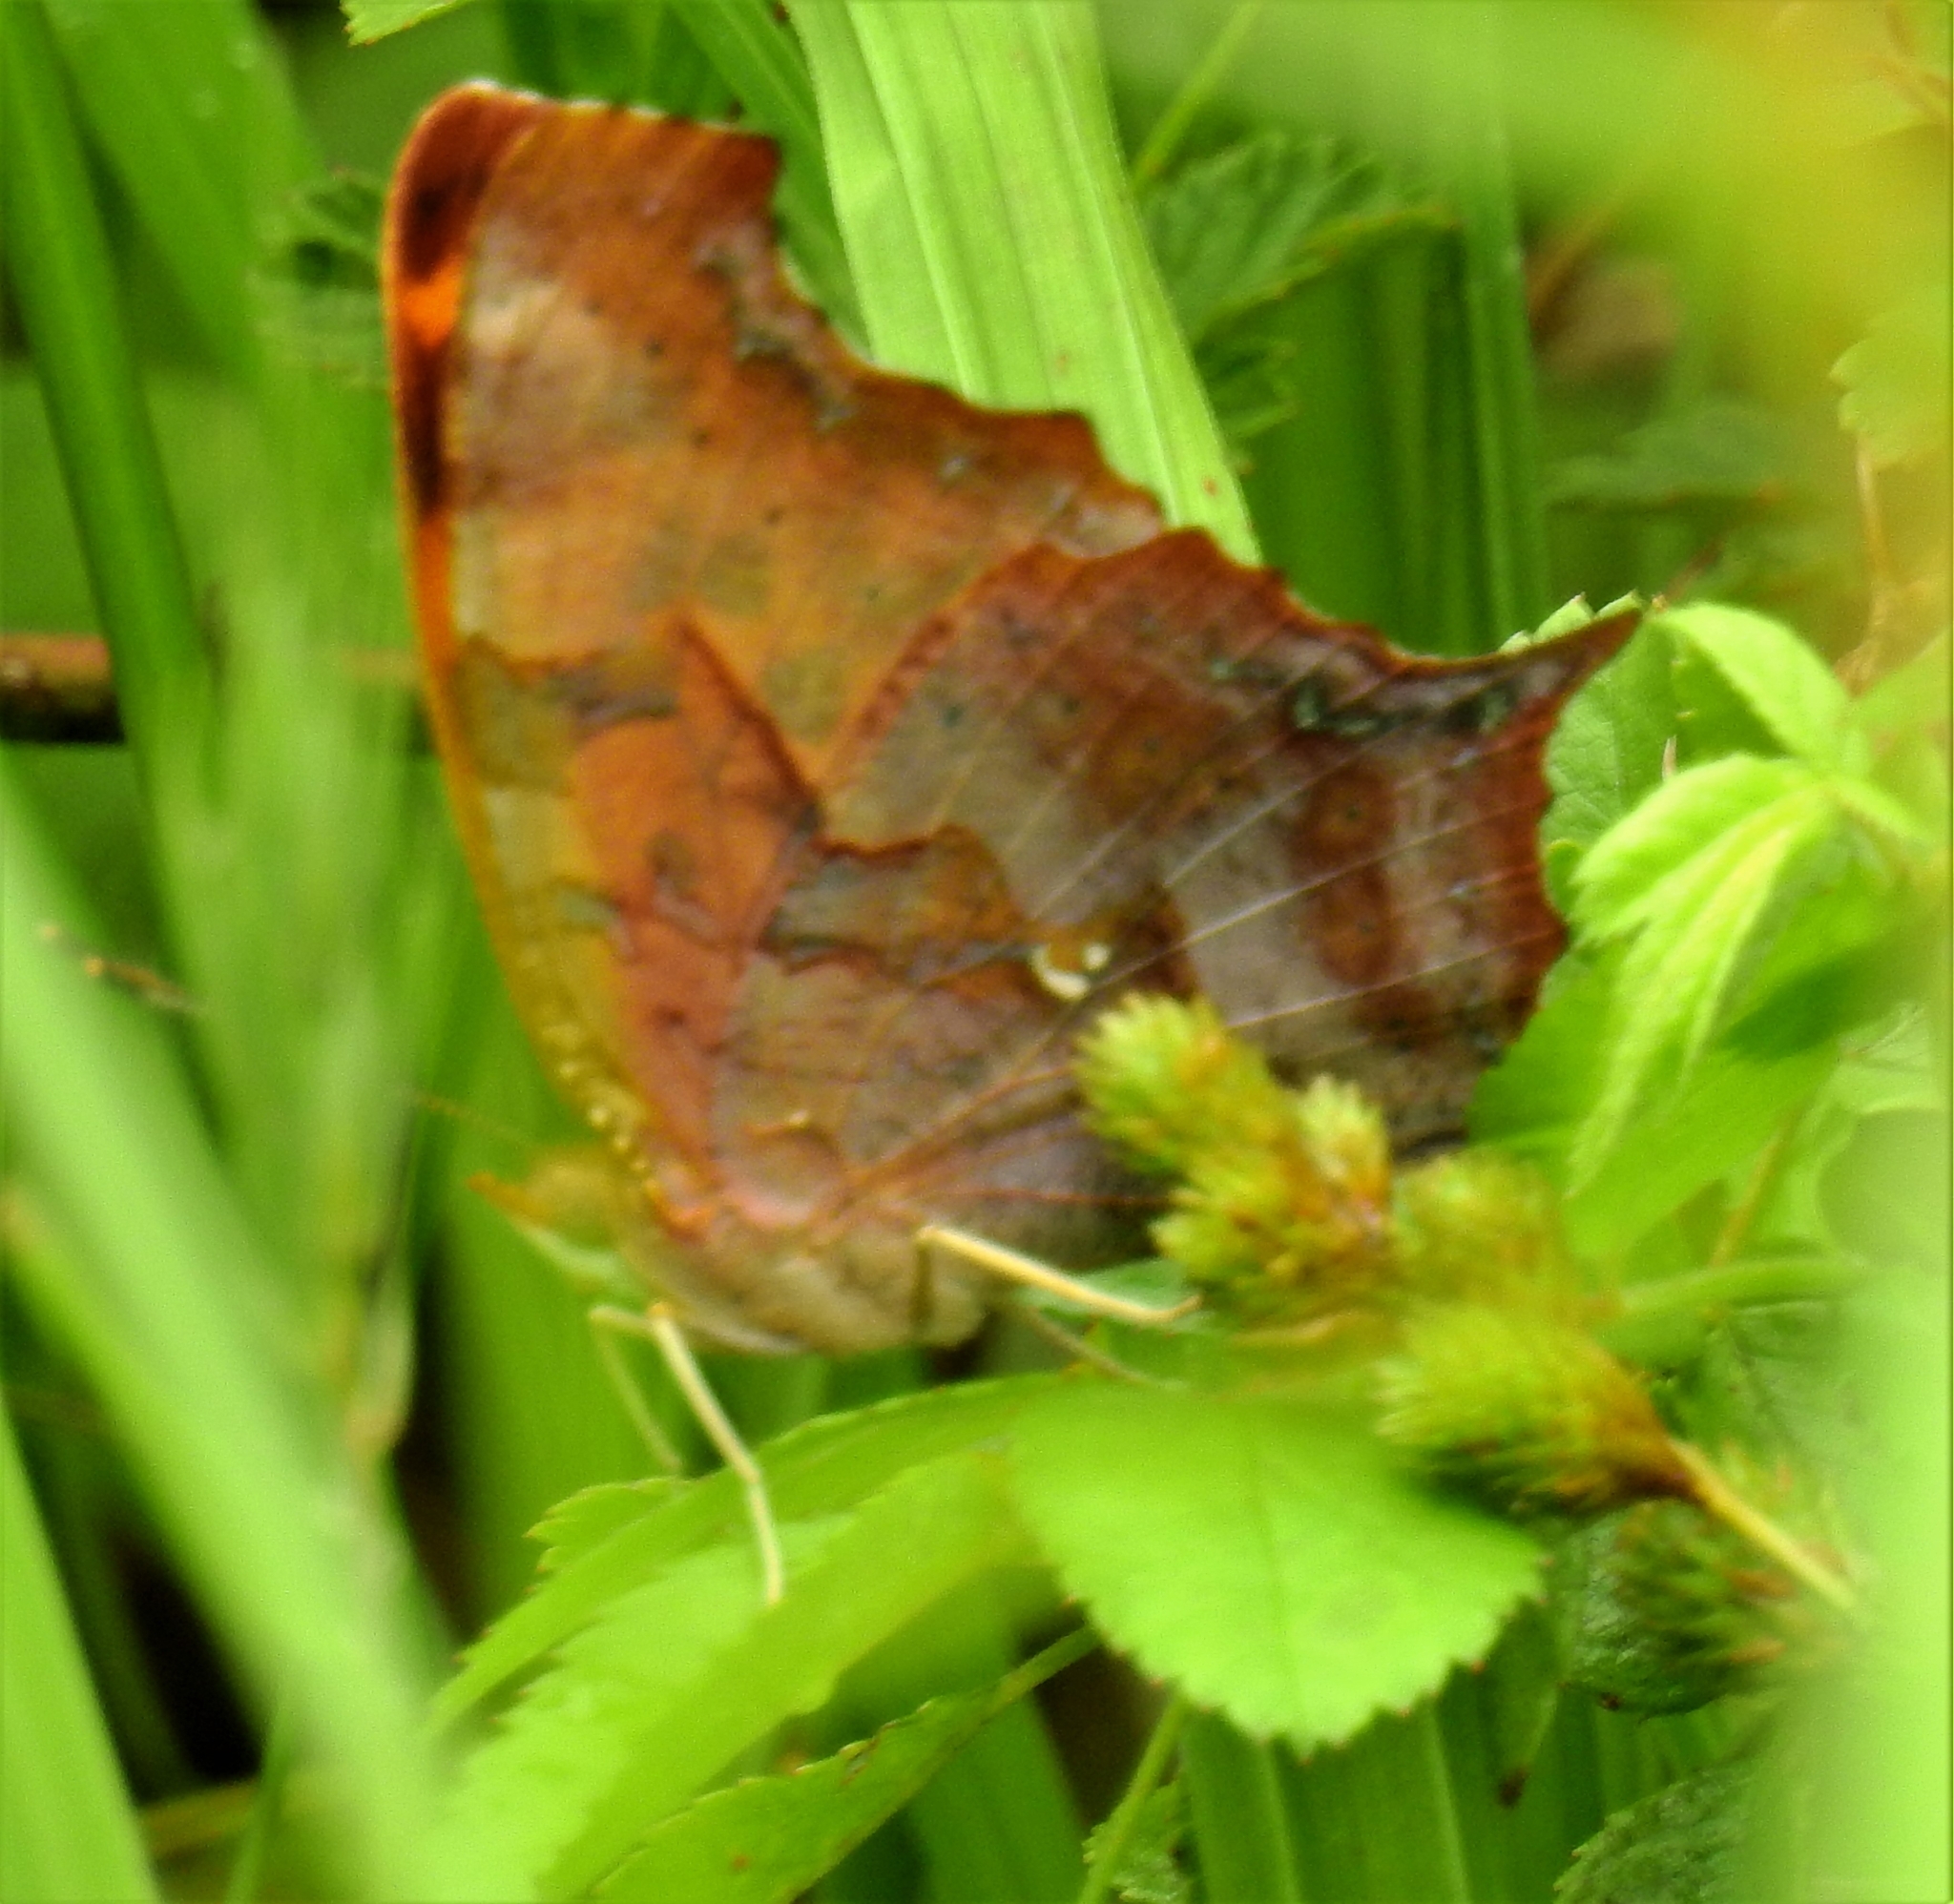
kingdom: Animalia
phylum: Arthropoda
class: Insecta
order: Lepidoptera
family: Nymphalidae
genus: Polygonia
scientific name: Polygonia interrogationis
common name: Question mark
